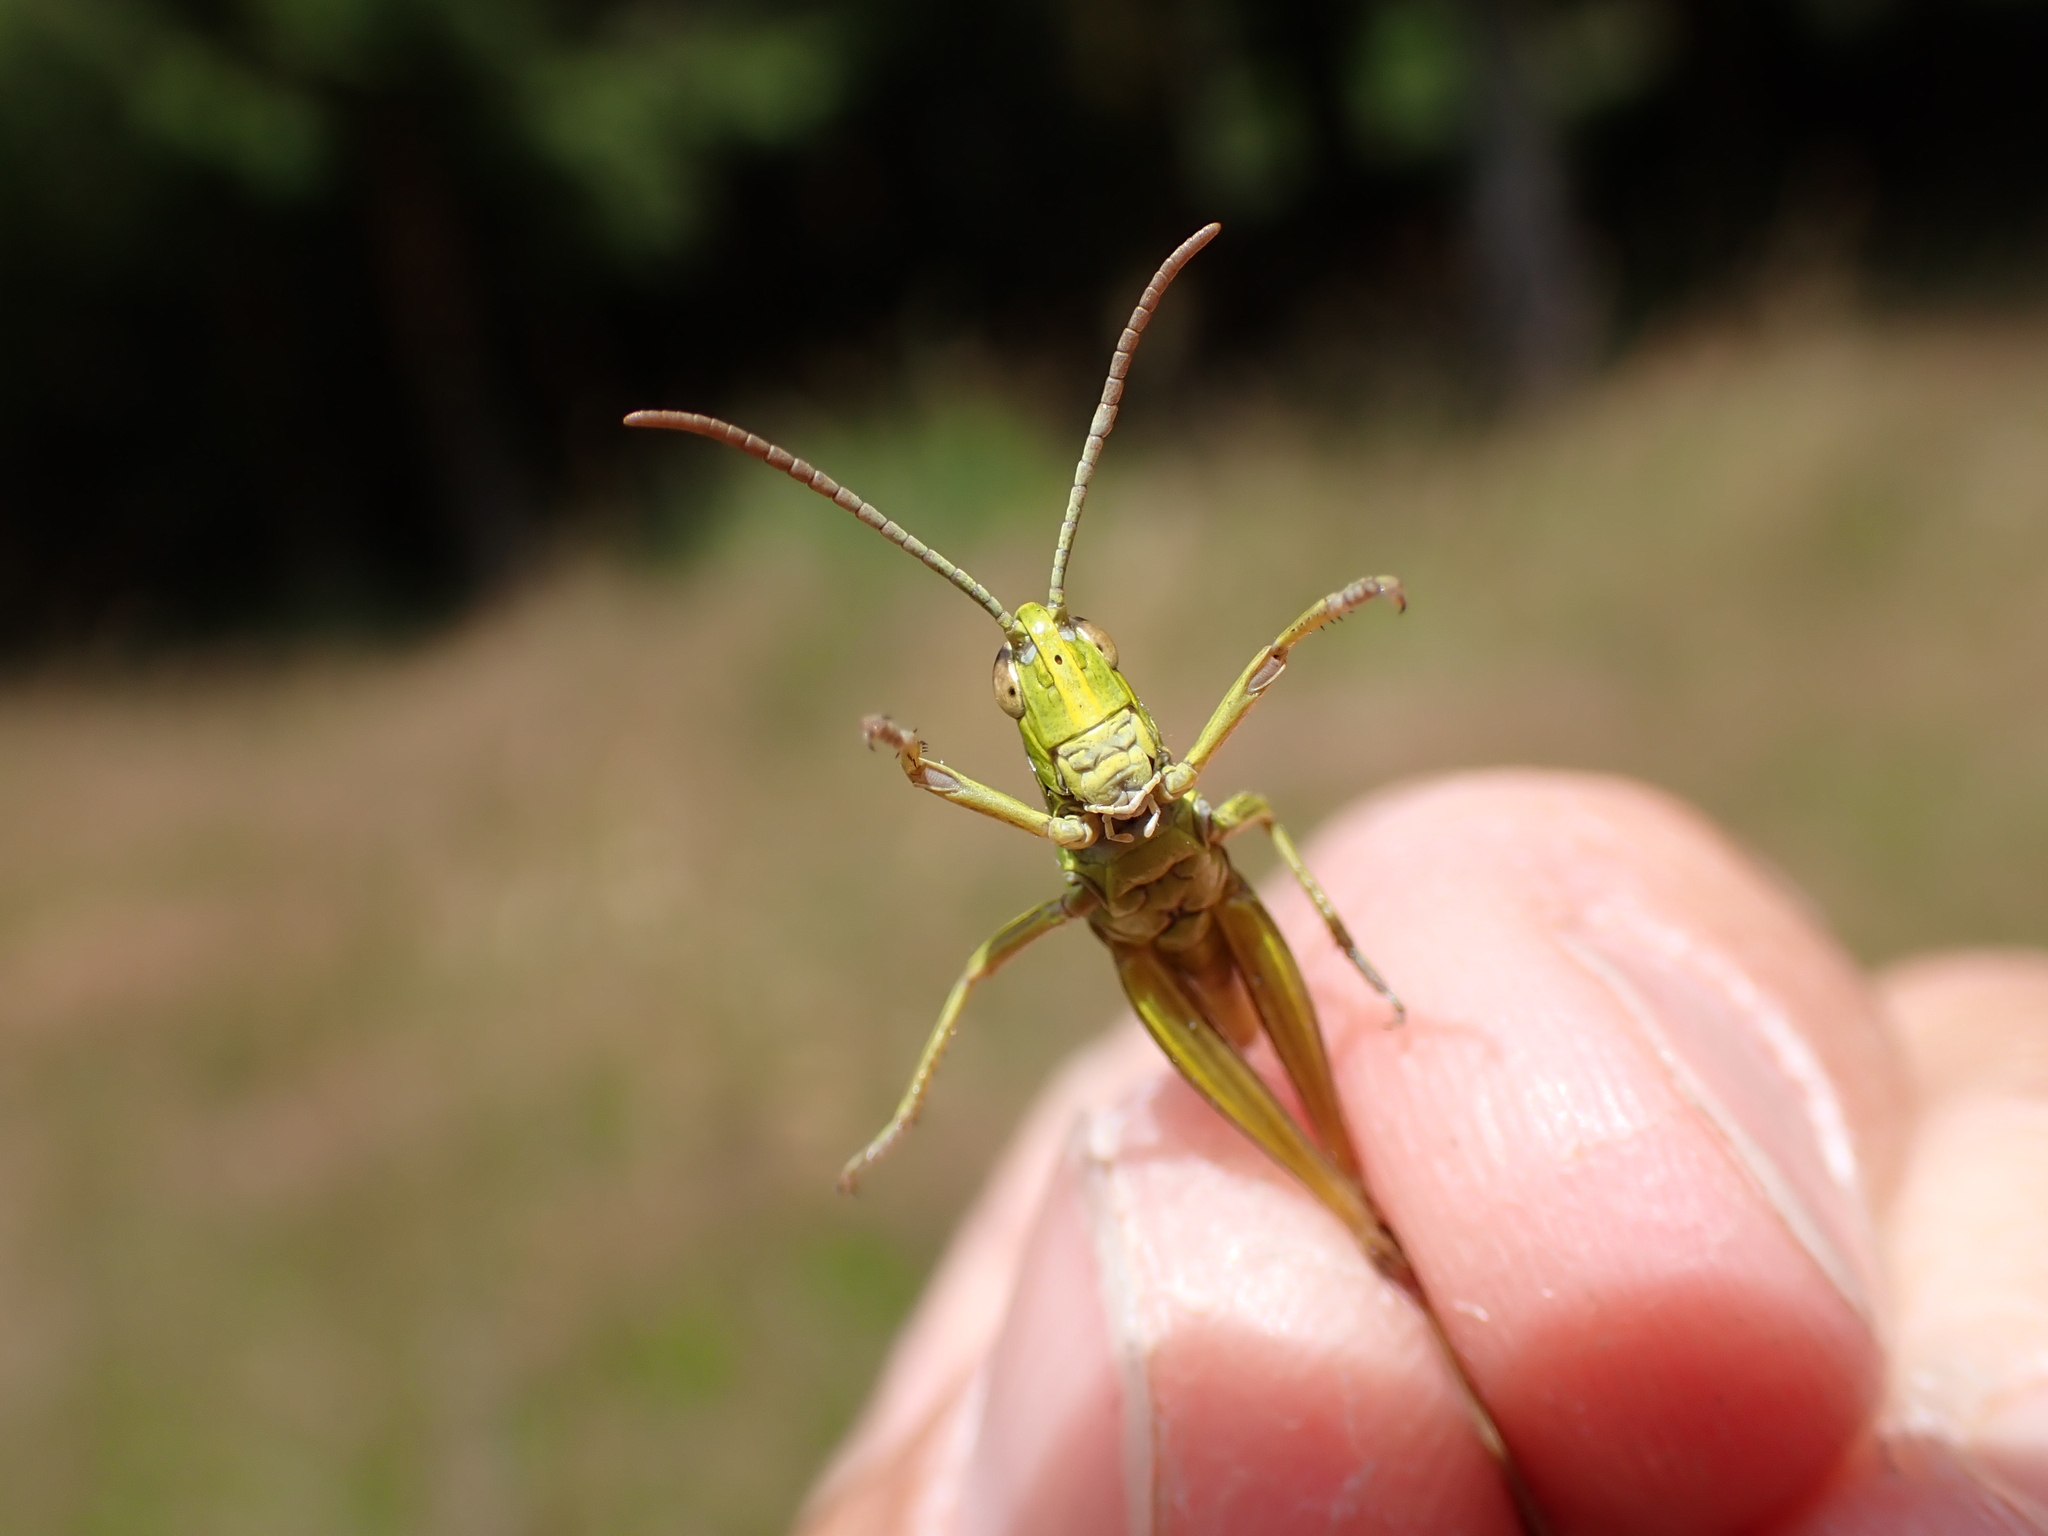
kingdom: Animalia
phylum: Arthropoda
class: Insecta
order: Orthoptera
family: Acrididae
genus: Pseudochorthippus
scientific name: Pseudochorthippus parallelus
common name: Meadow grasshopper
